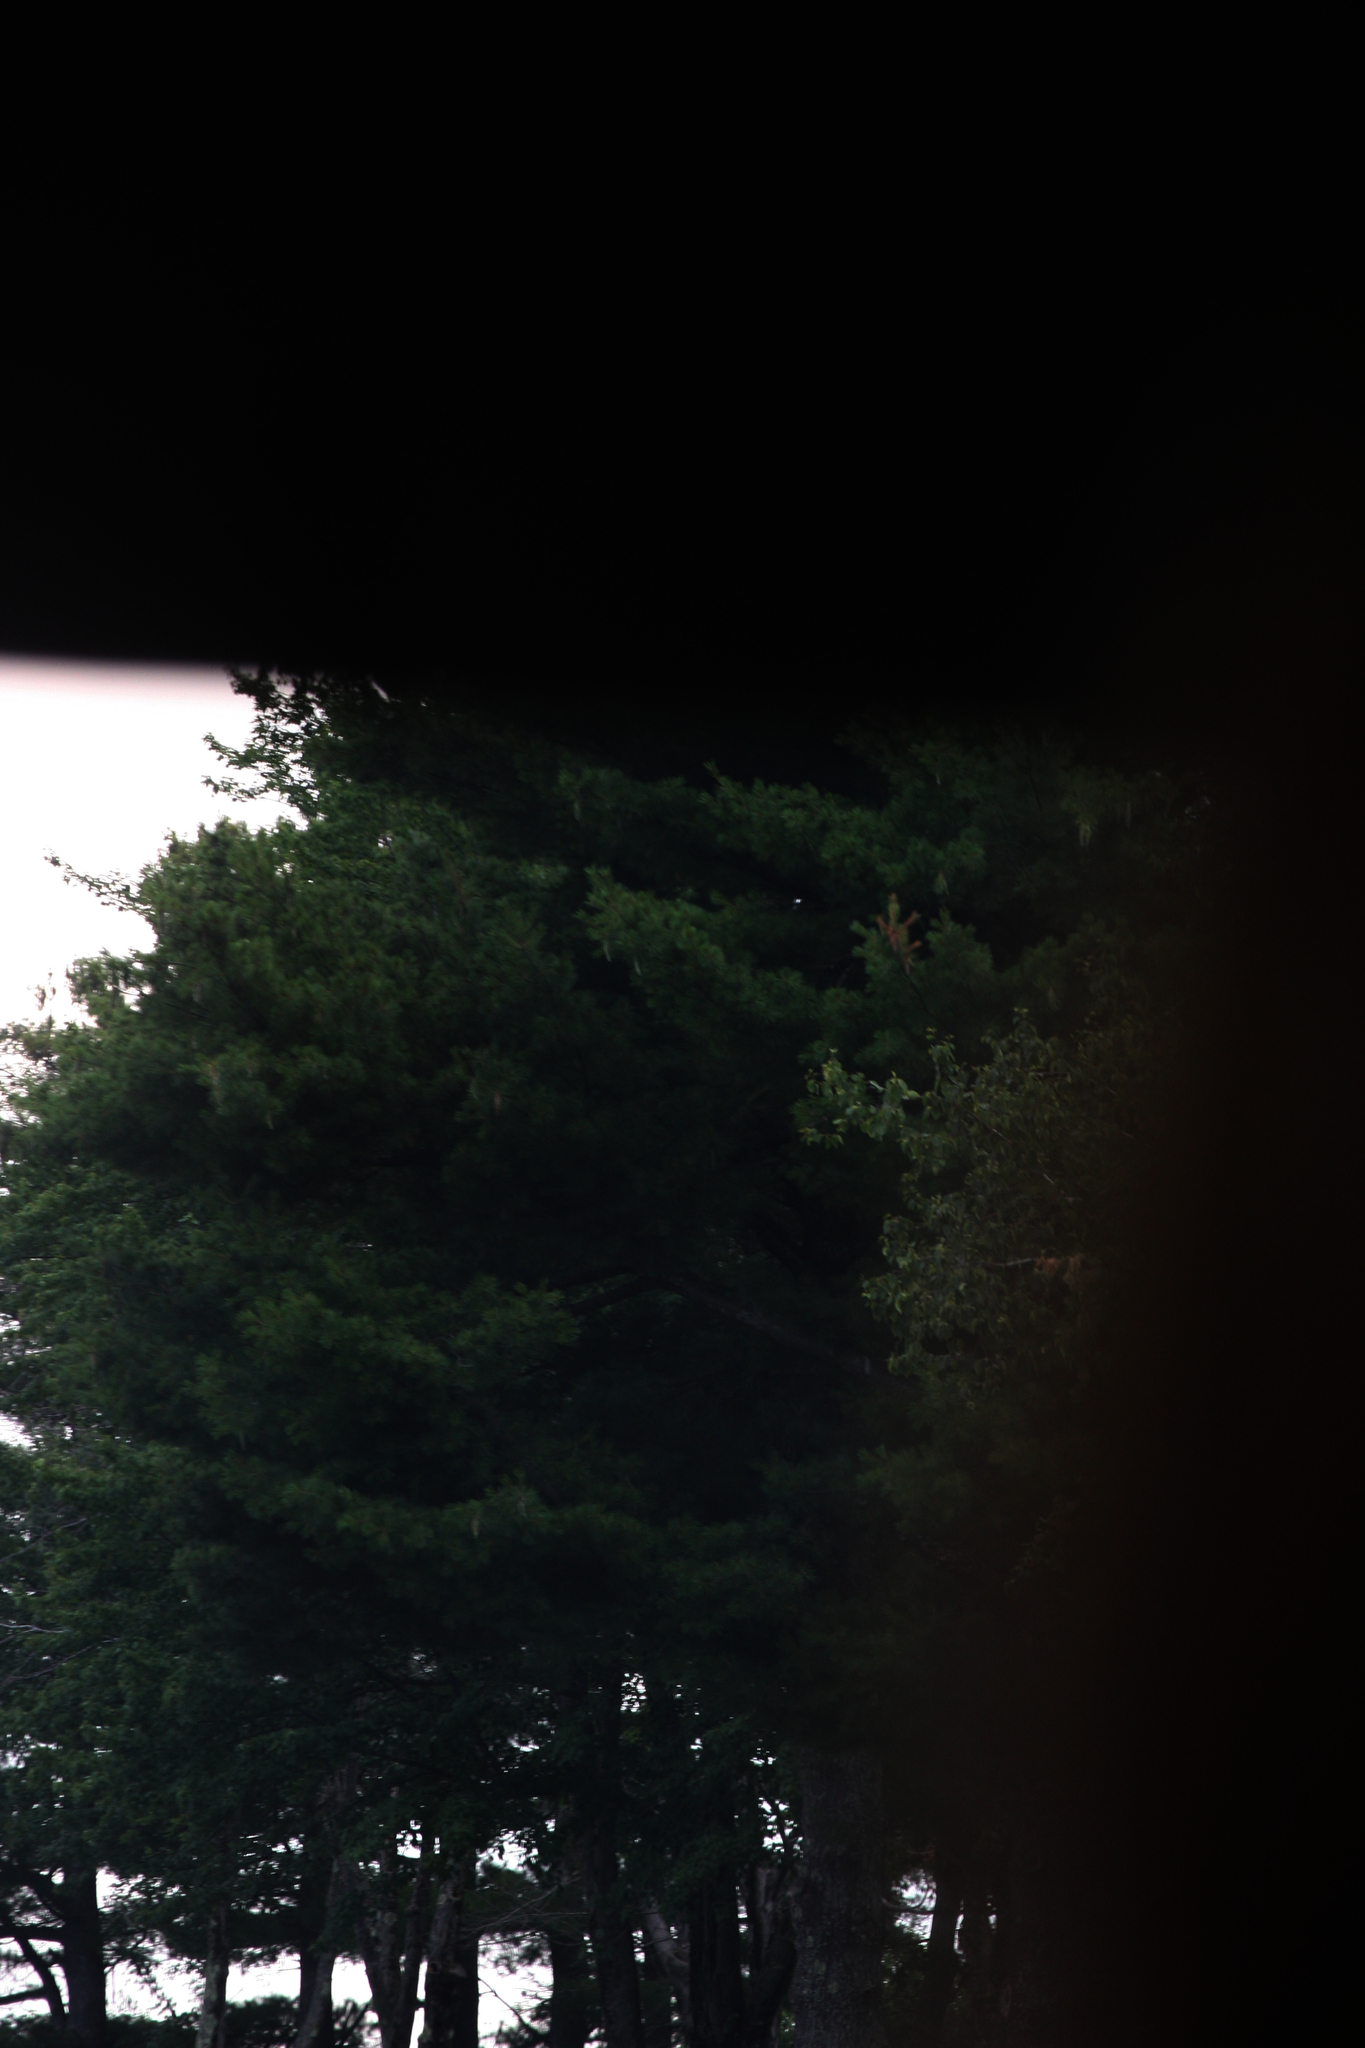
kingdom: Plantae
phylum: Tracheophyta
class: Pinopsida
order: Pinales
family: Pinaceae
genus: Pinus
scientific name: Pinus strobus
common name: Weymouth pine
